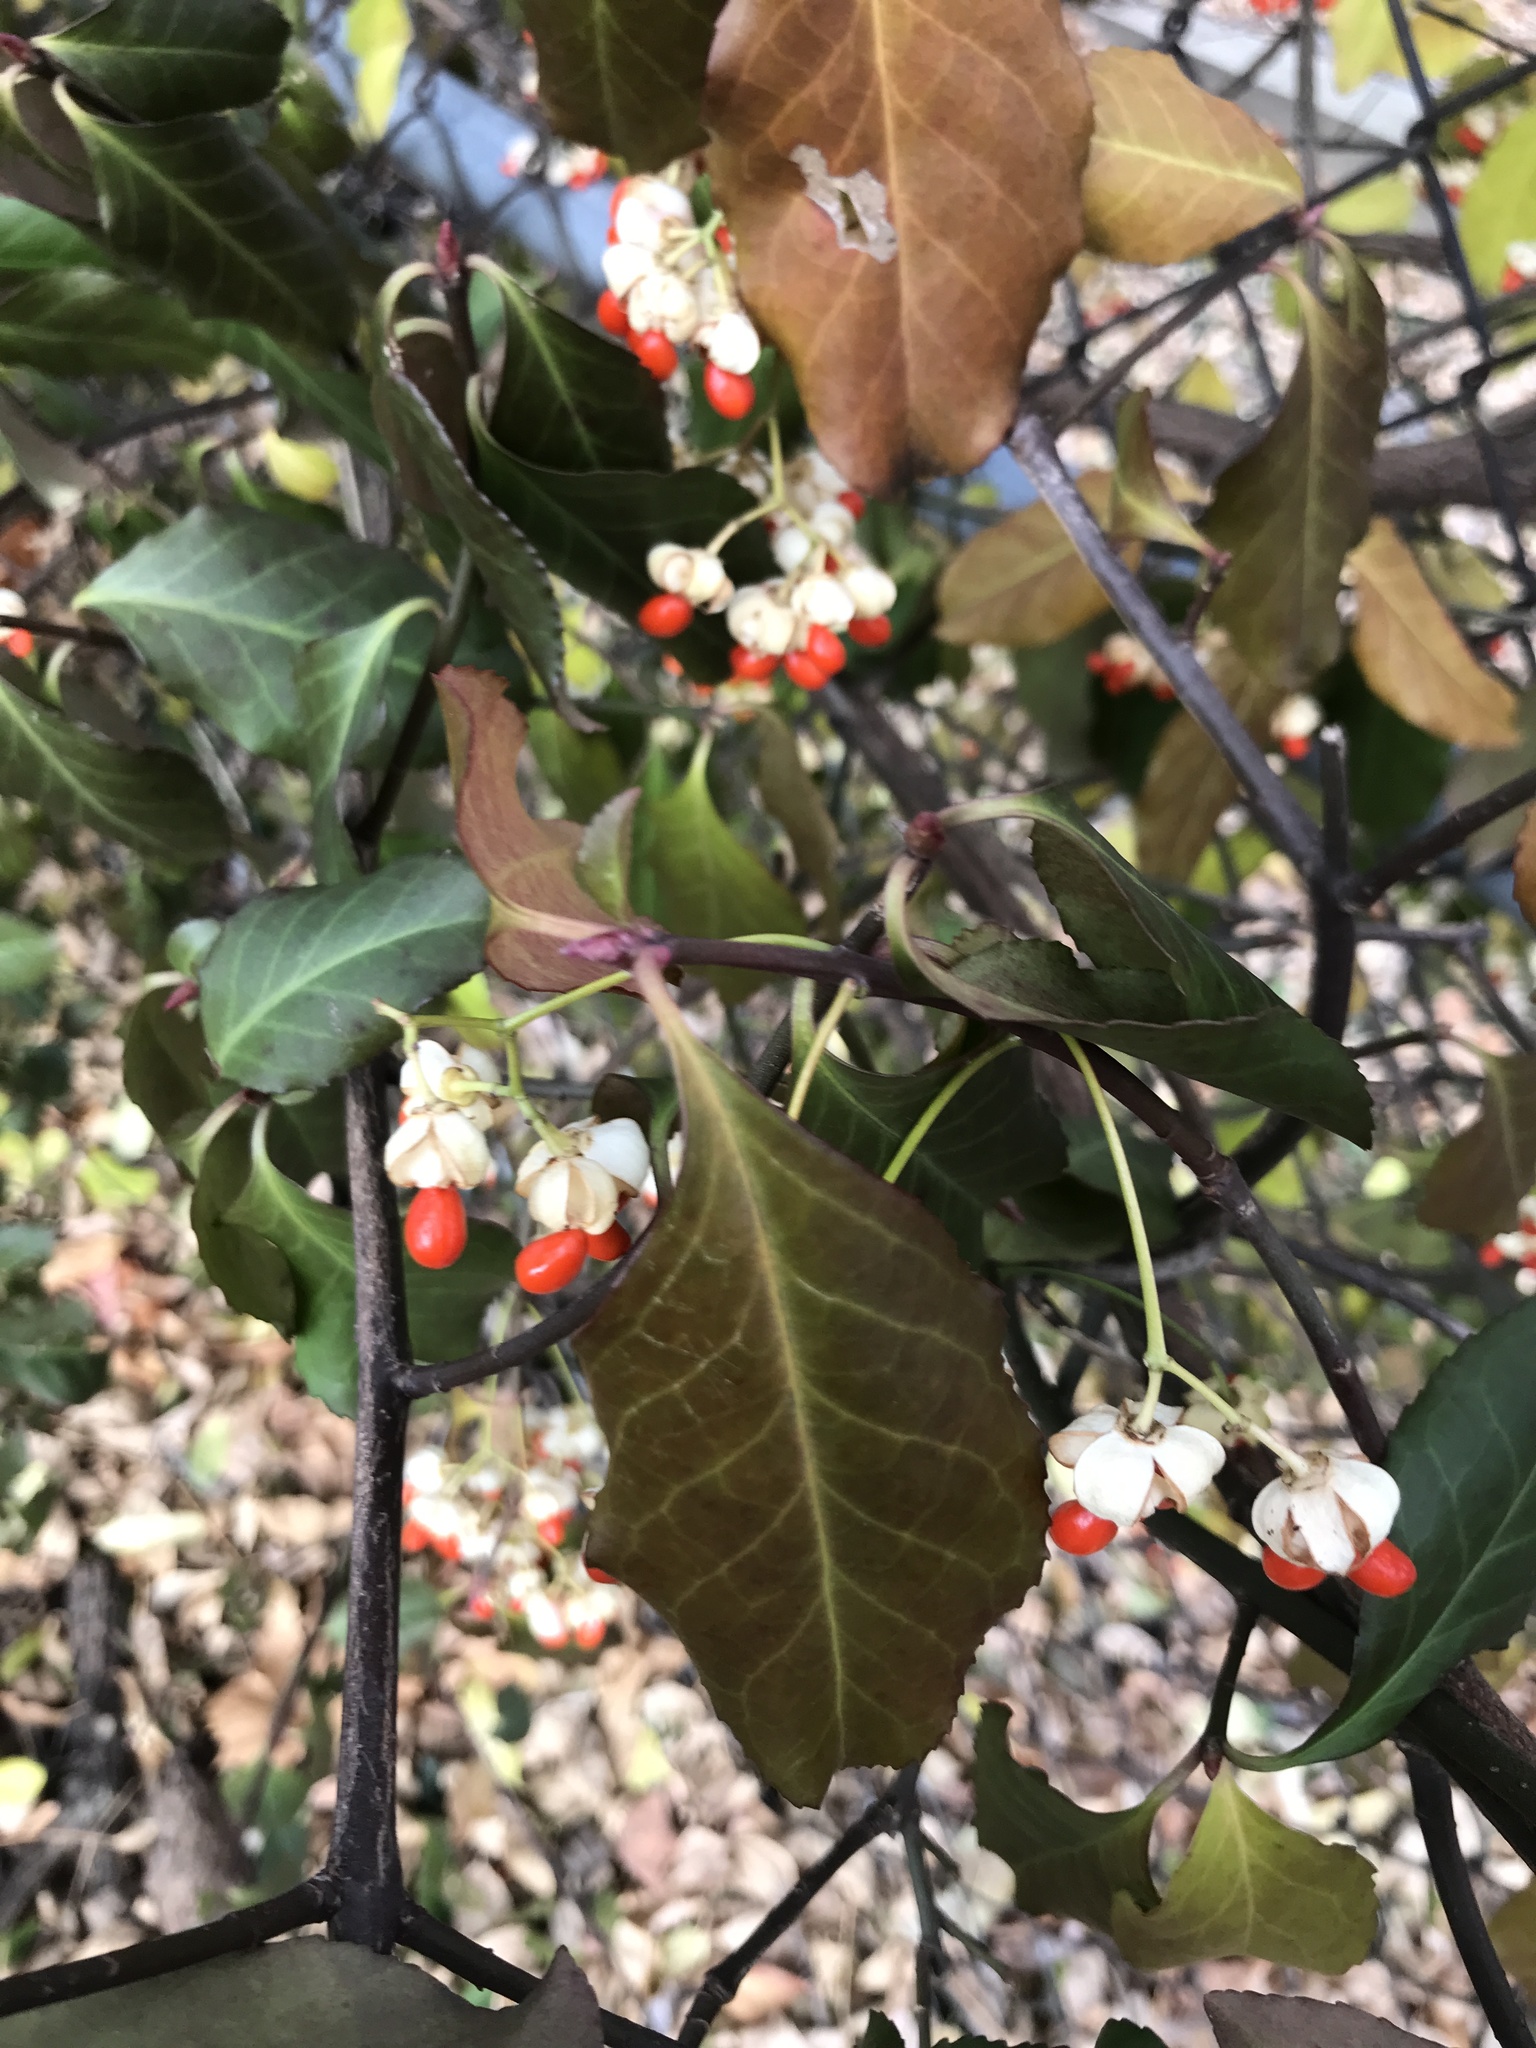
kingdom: Plantae
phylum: Tracheophyta
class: Magnoliopsida
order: Celastrales
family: Celastraceae
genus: Euonymus
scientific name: Euonymus fortunei
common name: Climbing euonymus
